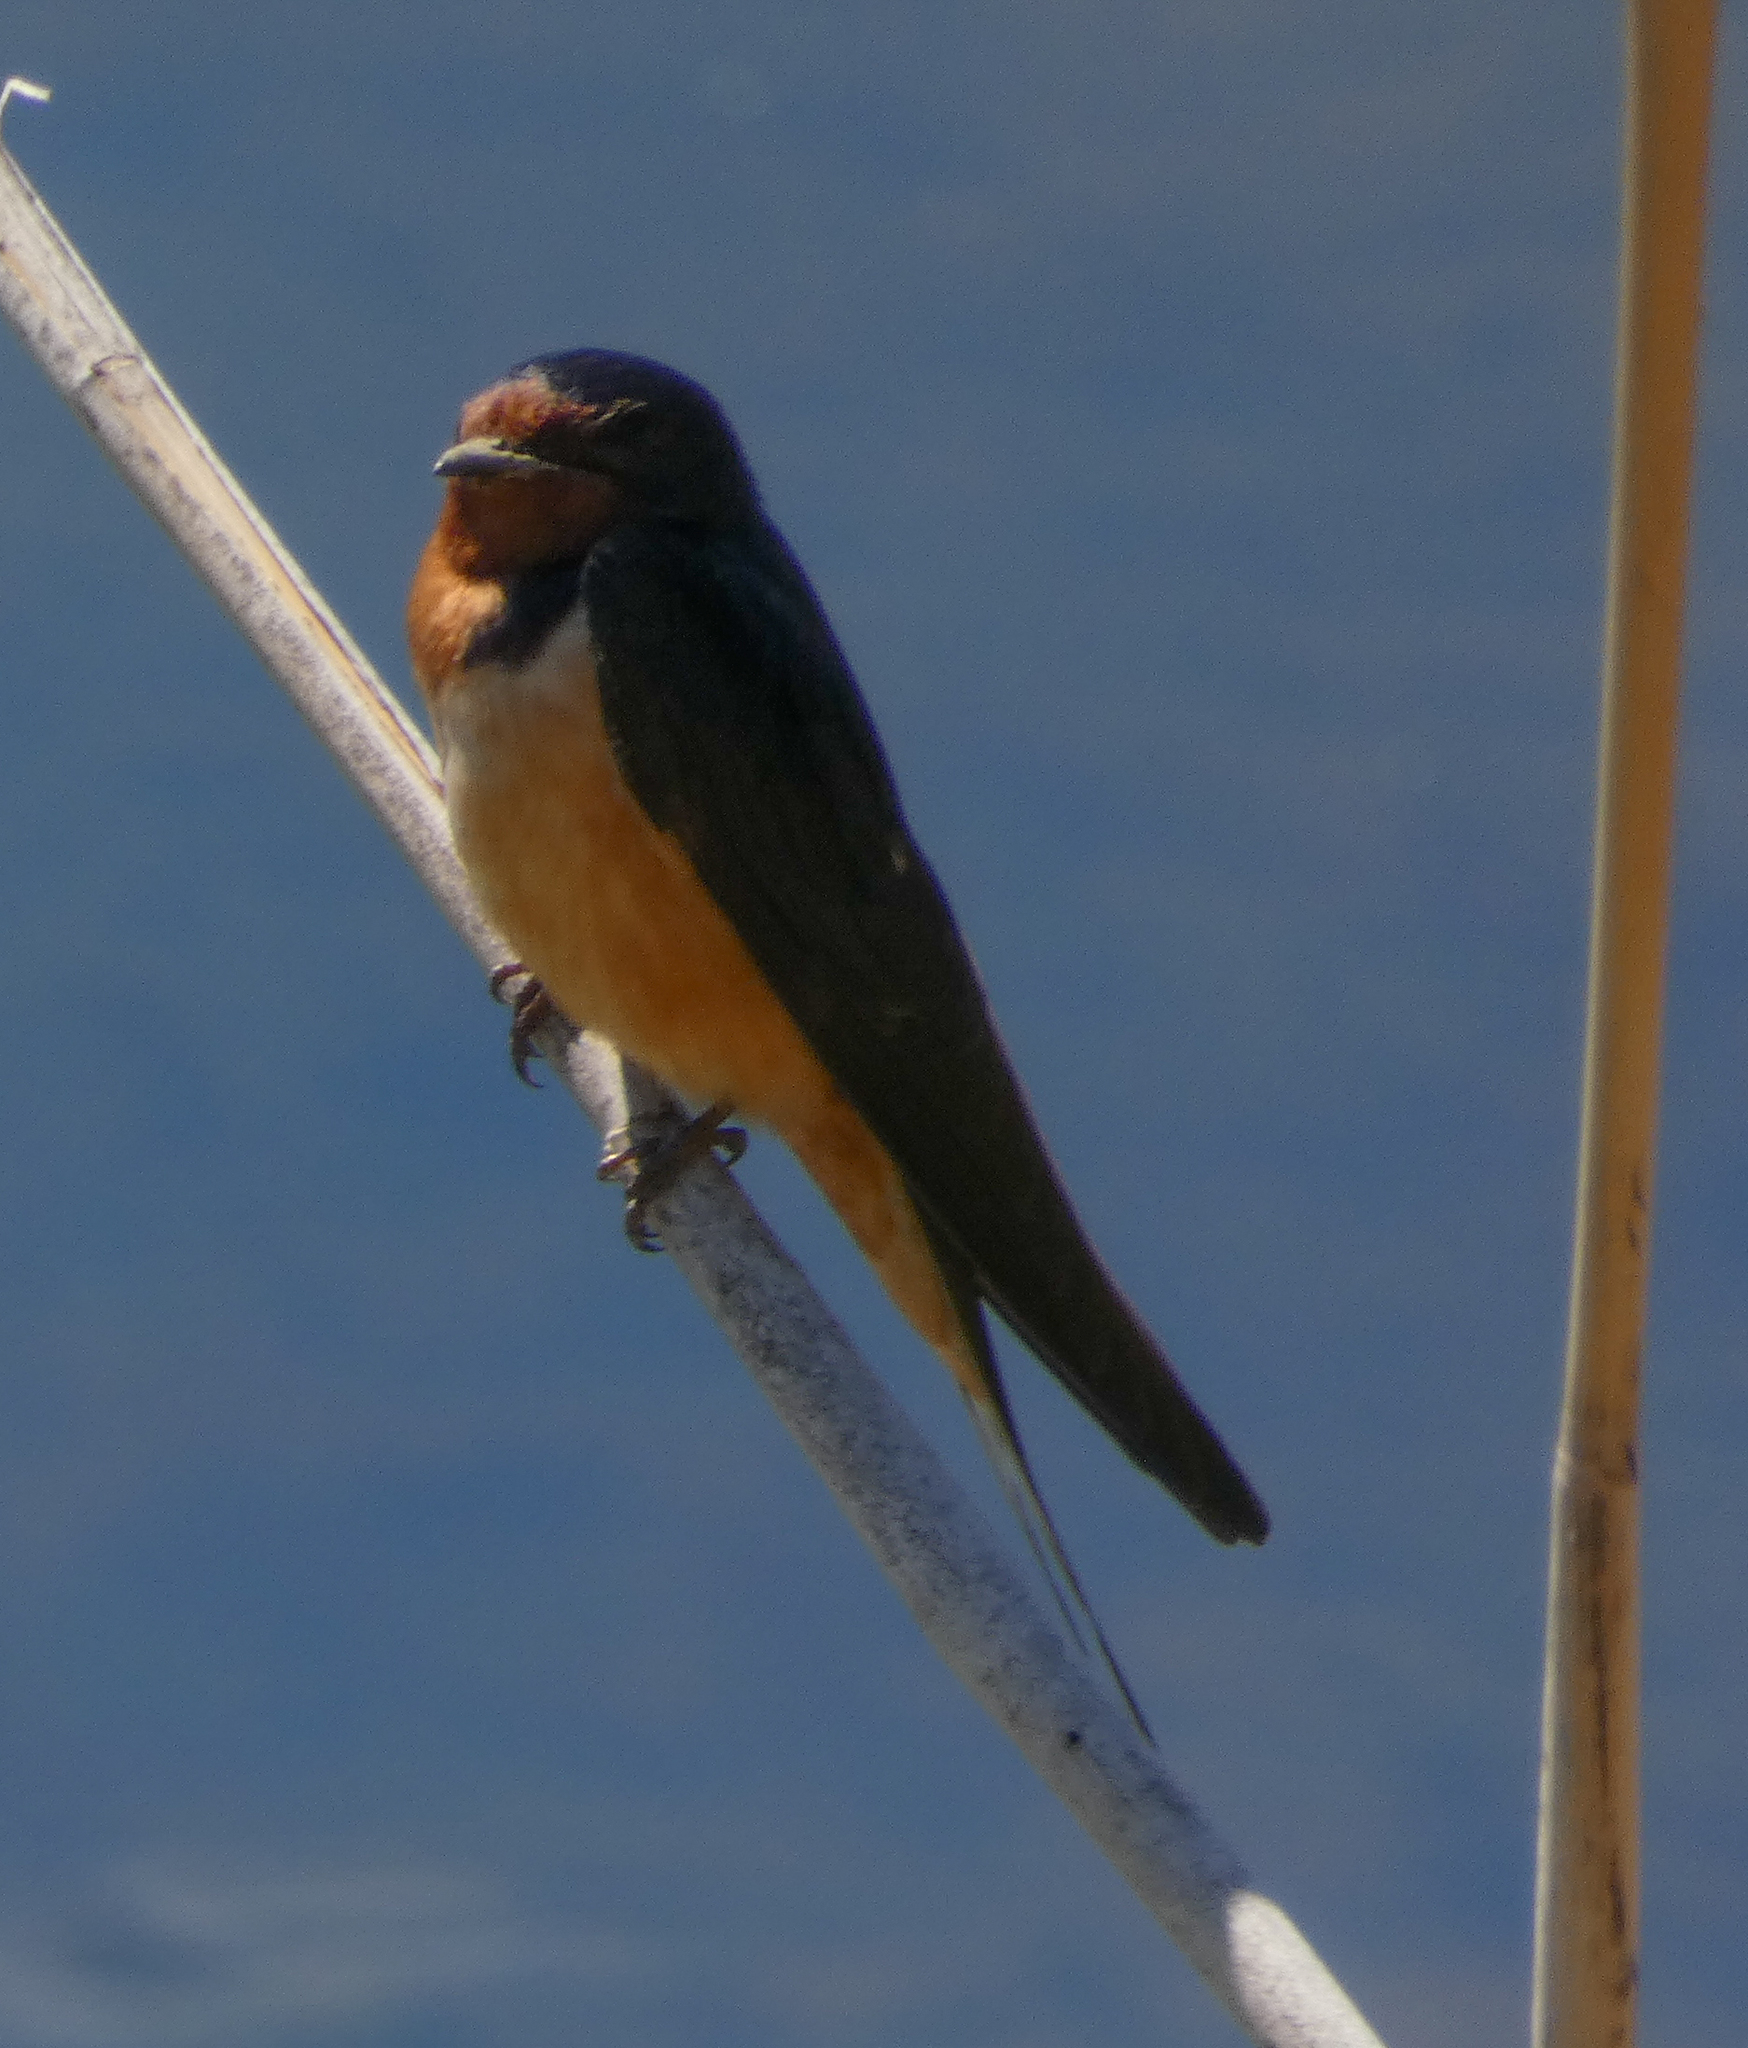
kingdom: Animalia
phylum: Chordata
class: Aves
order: Passeriformes
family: Hirundinidae
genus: Hirundo
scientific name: Hirundo rustica
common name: Barn swallow
